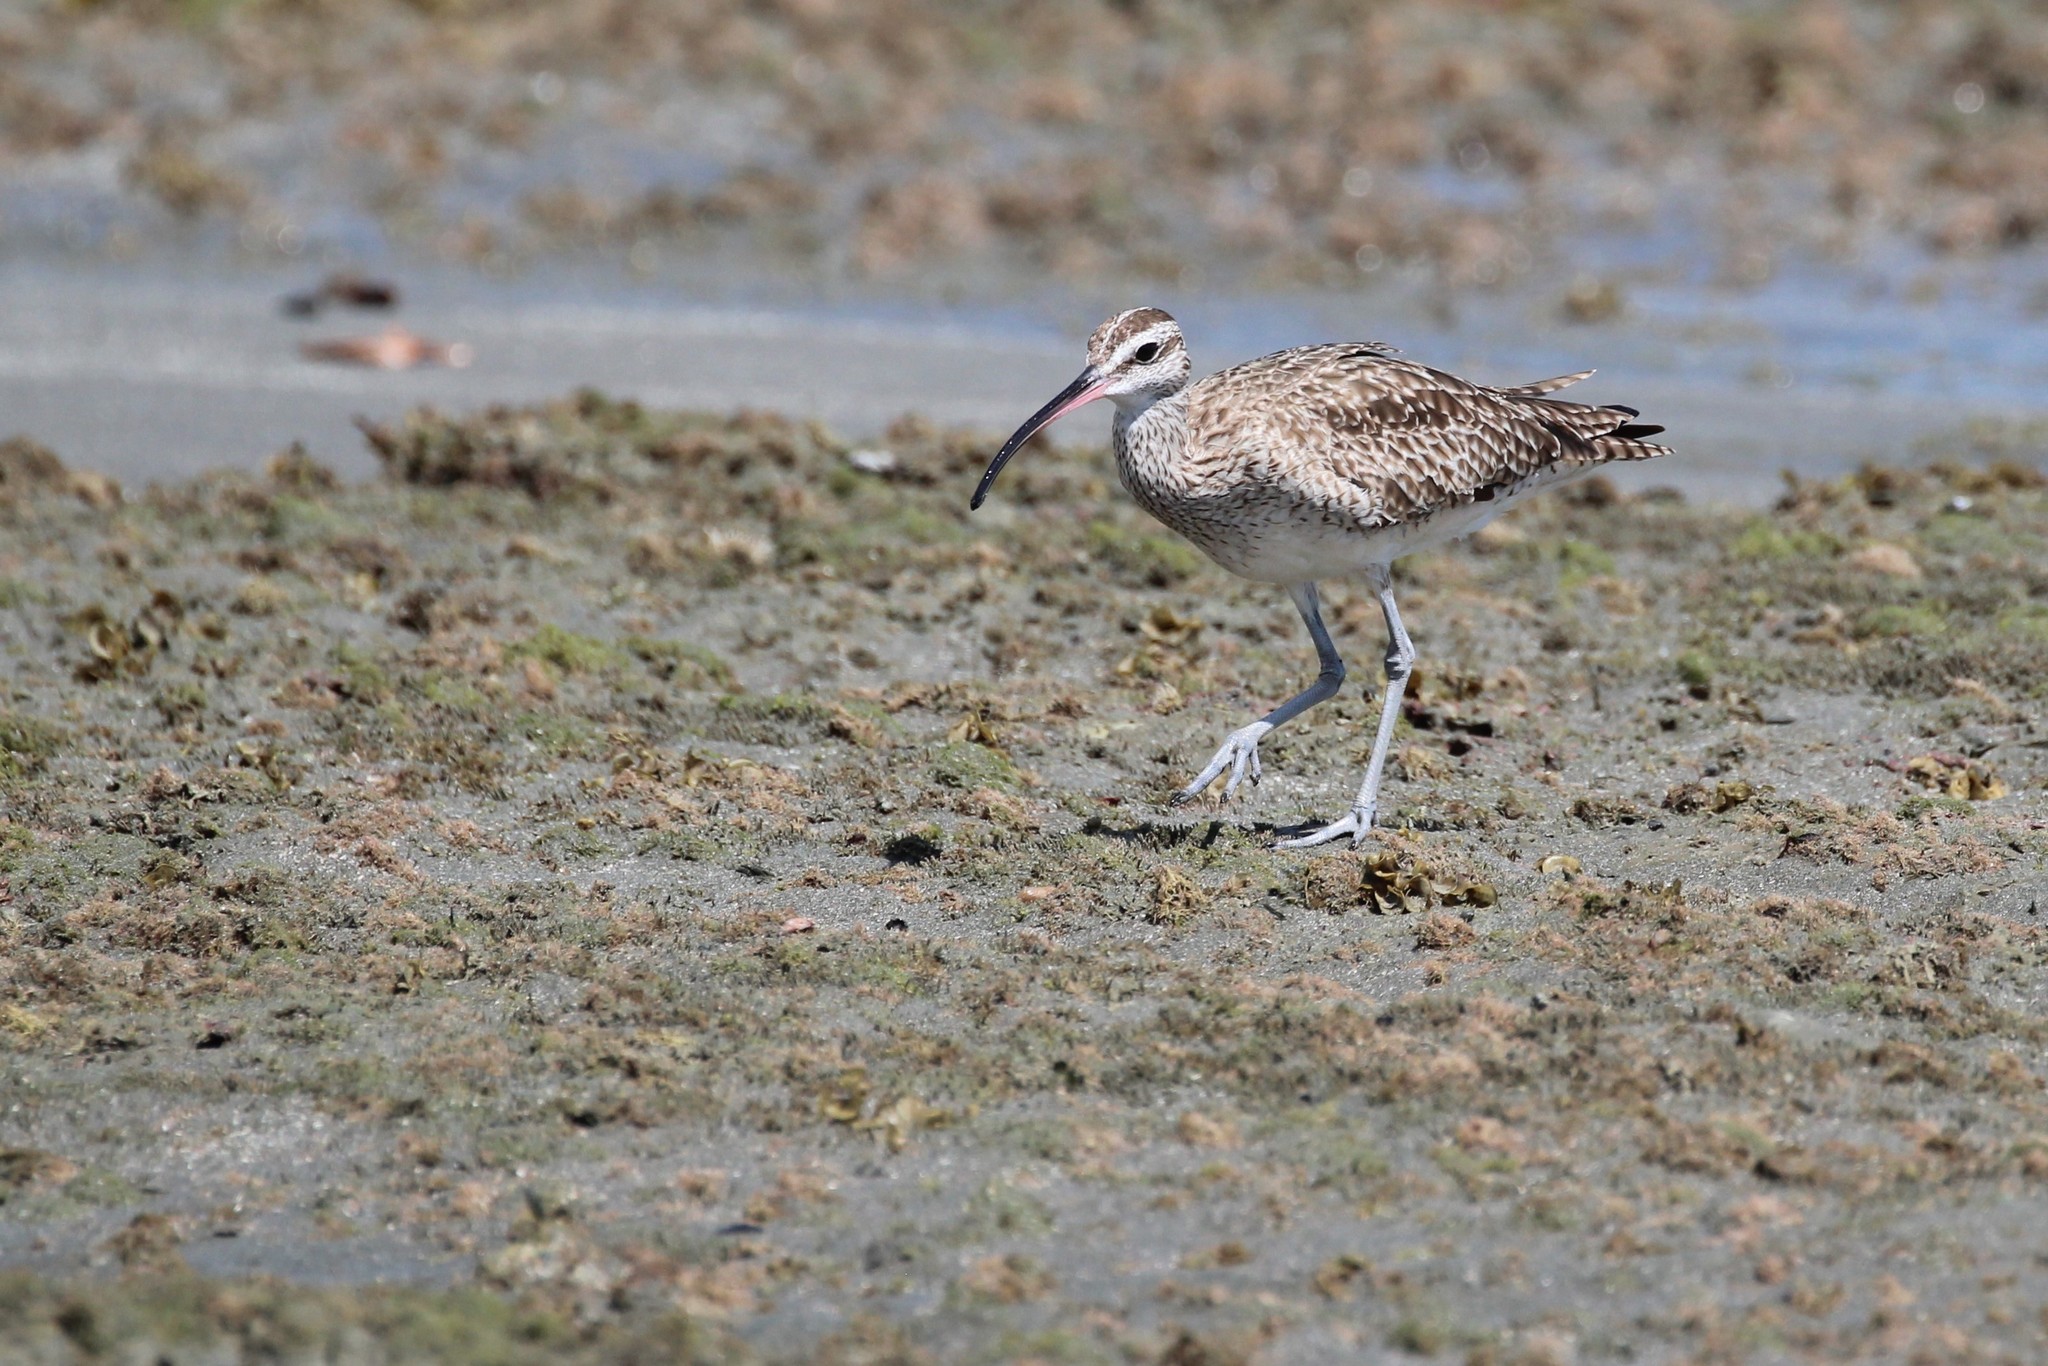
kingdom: Animalia
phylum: Chordata
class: Aves
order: Charadriiformes
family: Scolopacidae
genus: Numenius
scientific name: Numenius phaeopus
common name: Whimbrel
